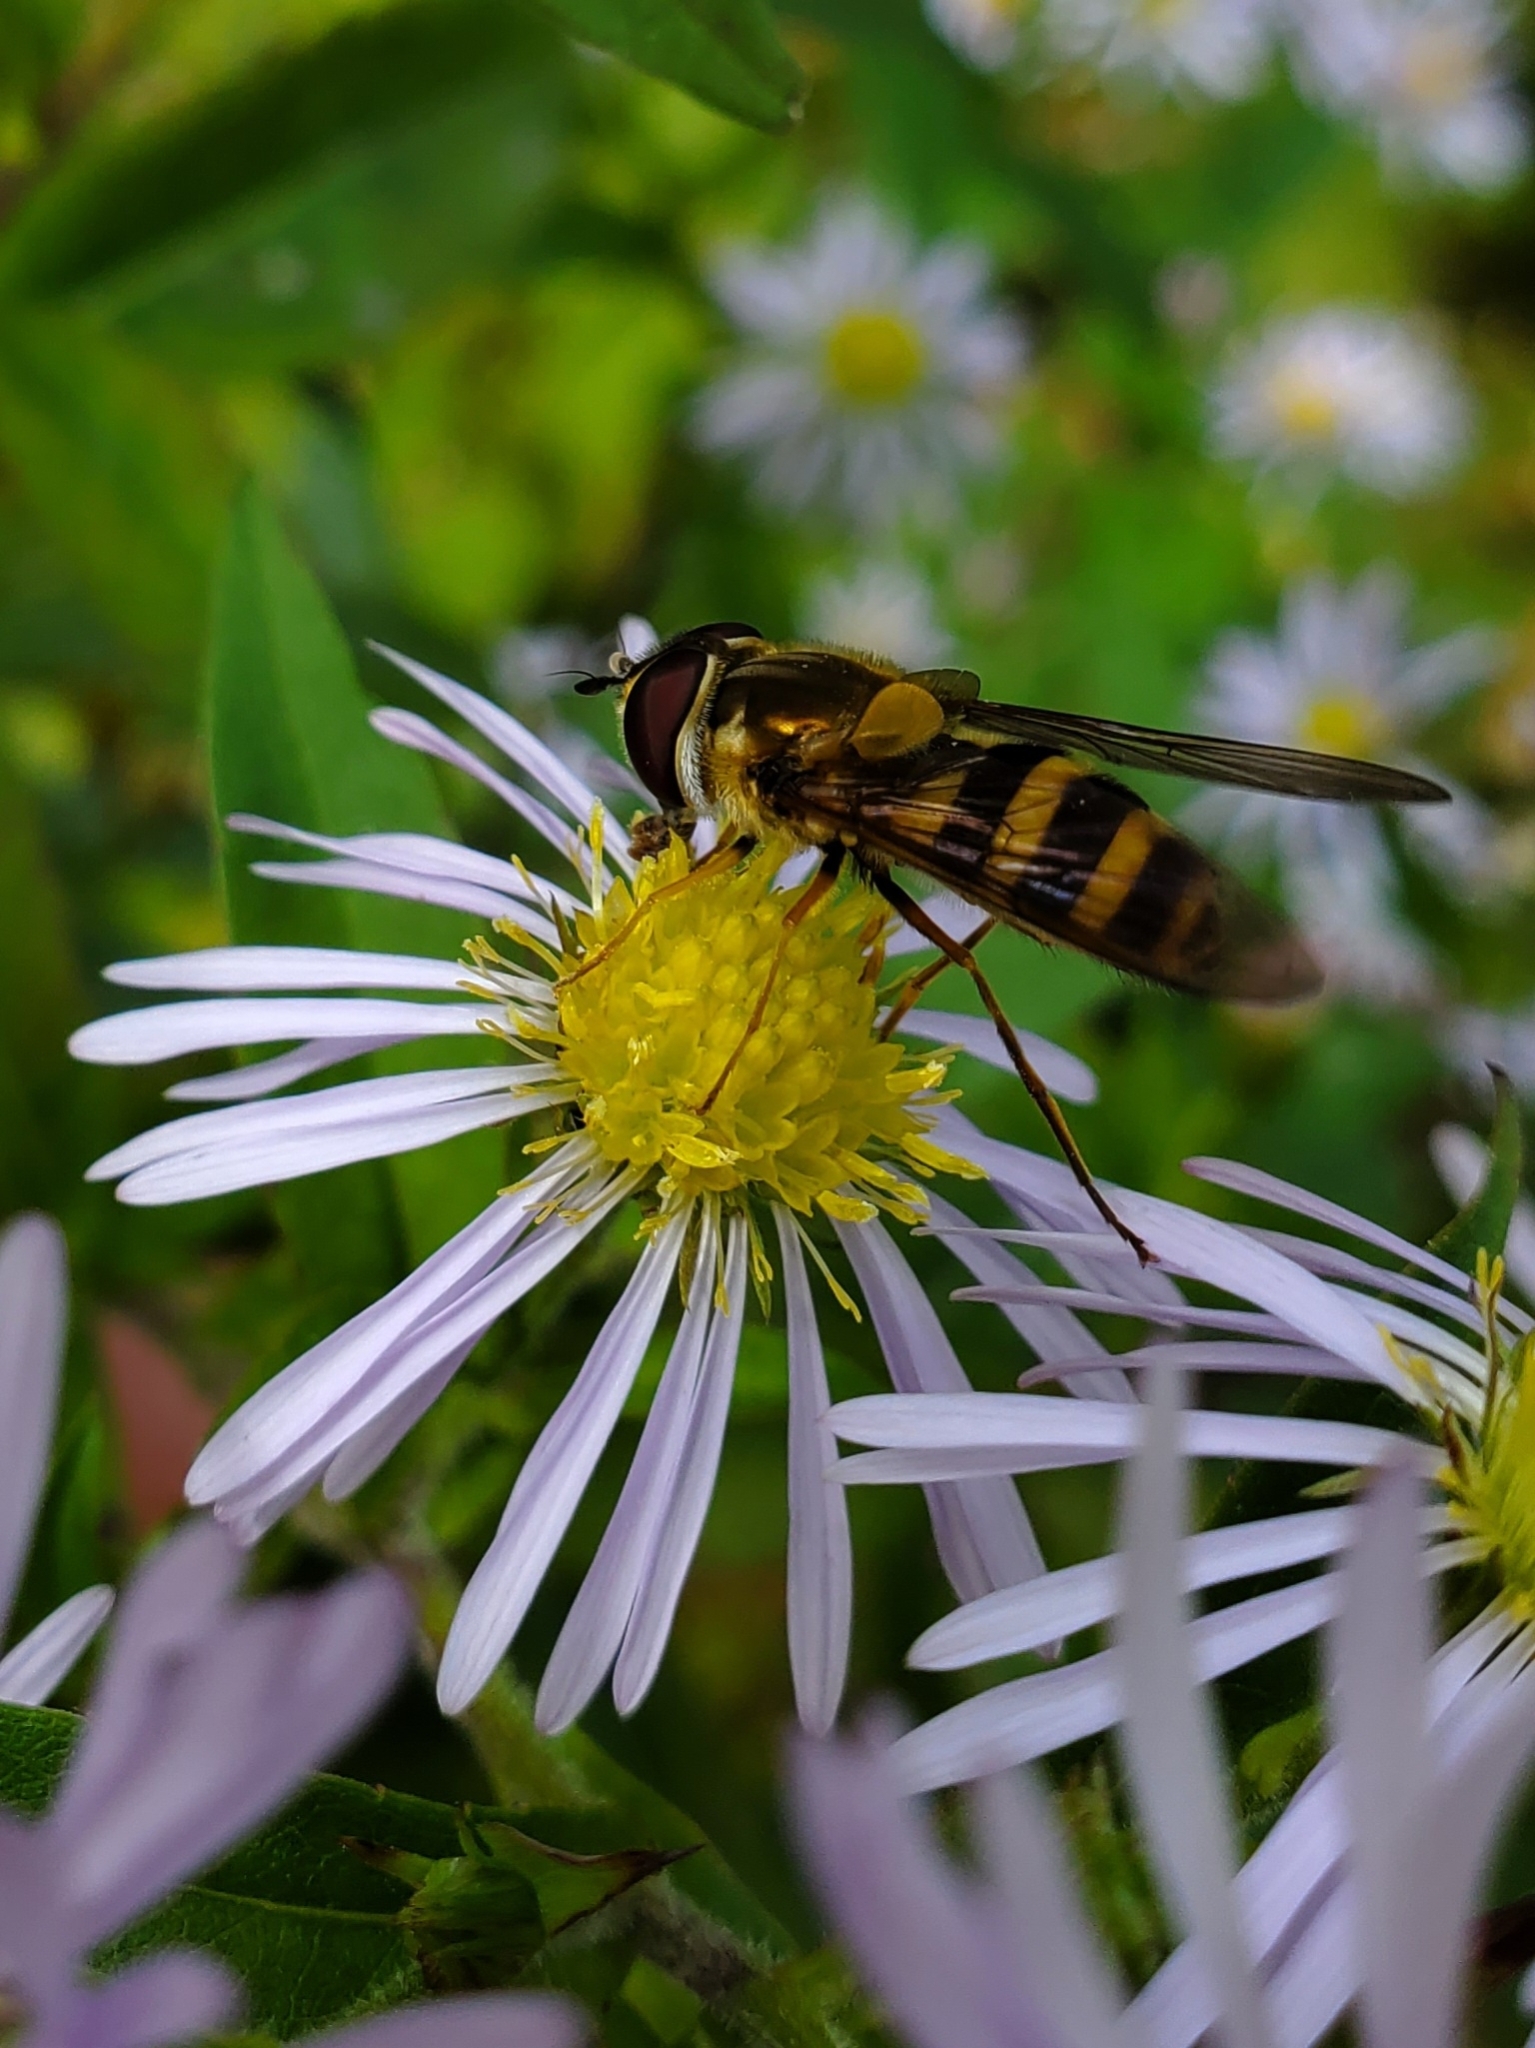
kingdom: Animalia
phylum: Arthropoda
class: Insecta
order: Diptera
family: Syrphidae
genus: Epistrophe
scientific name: Epistrophe grossulariae
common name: Black-horned smoothtail
